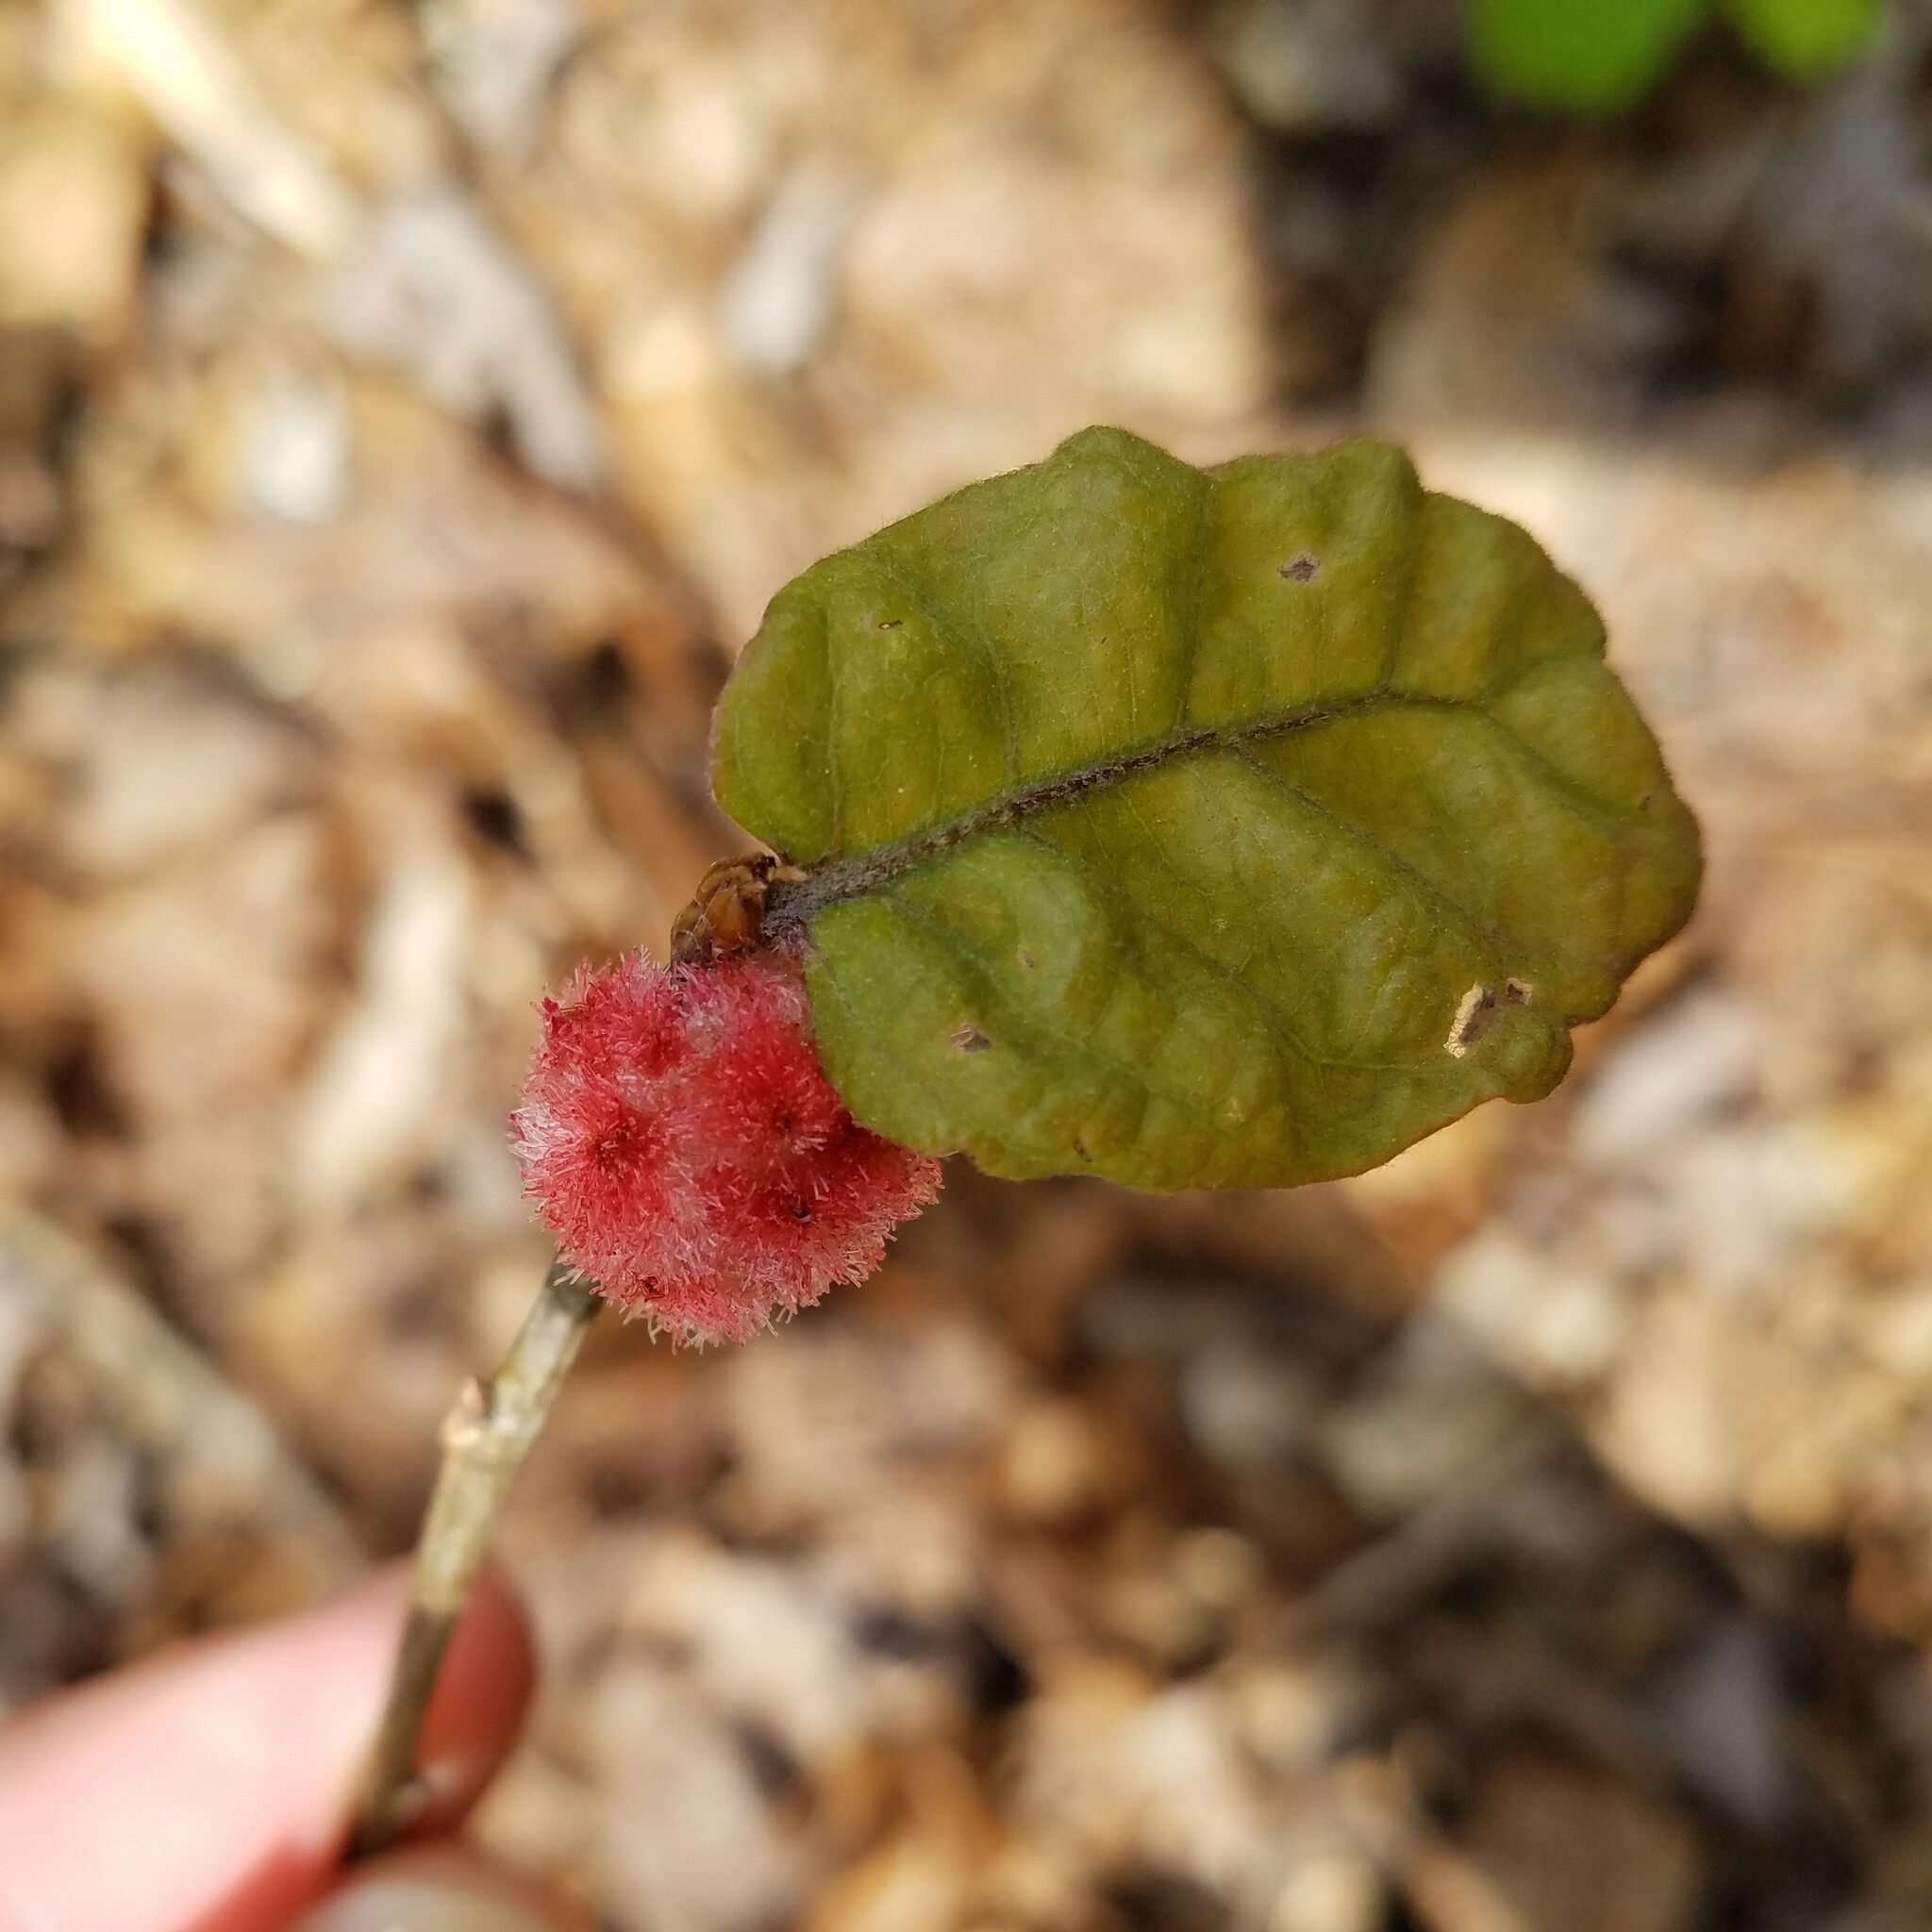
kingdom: Animalia
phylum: Arthropoda
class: Insecta
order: Hymenoptera
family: Cynipidae
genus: Callirhytis
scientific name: Callirhytis
